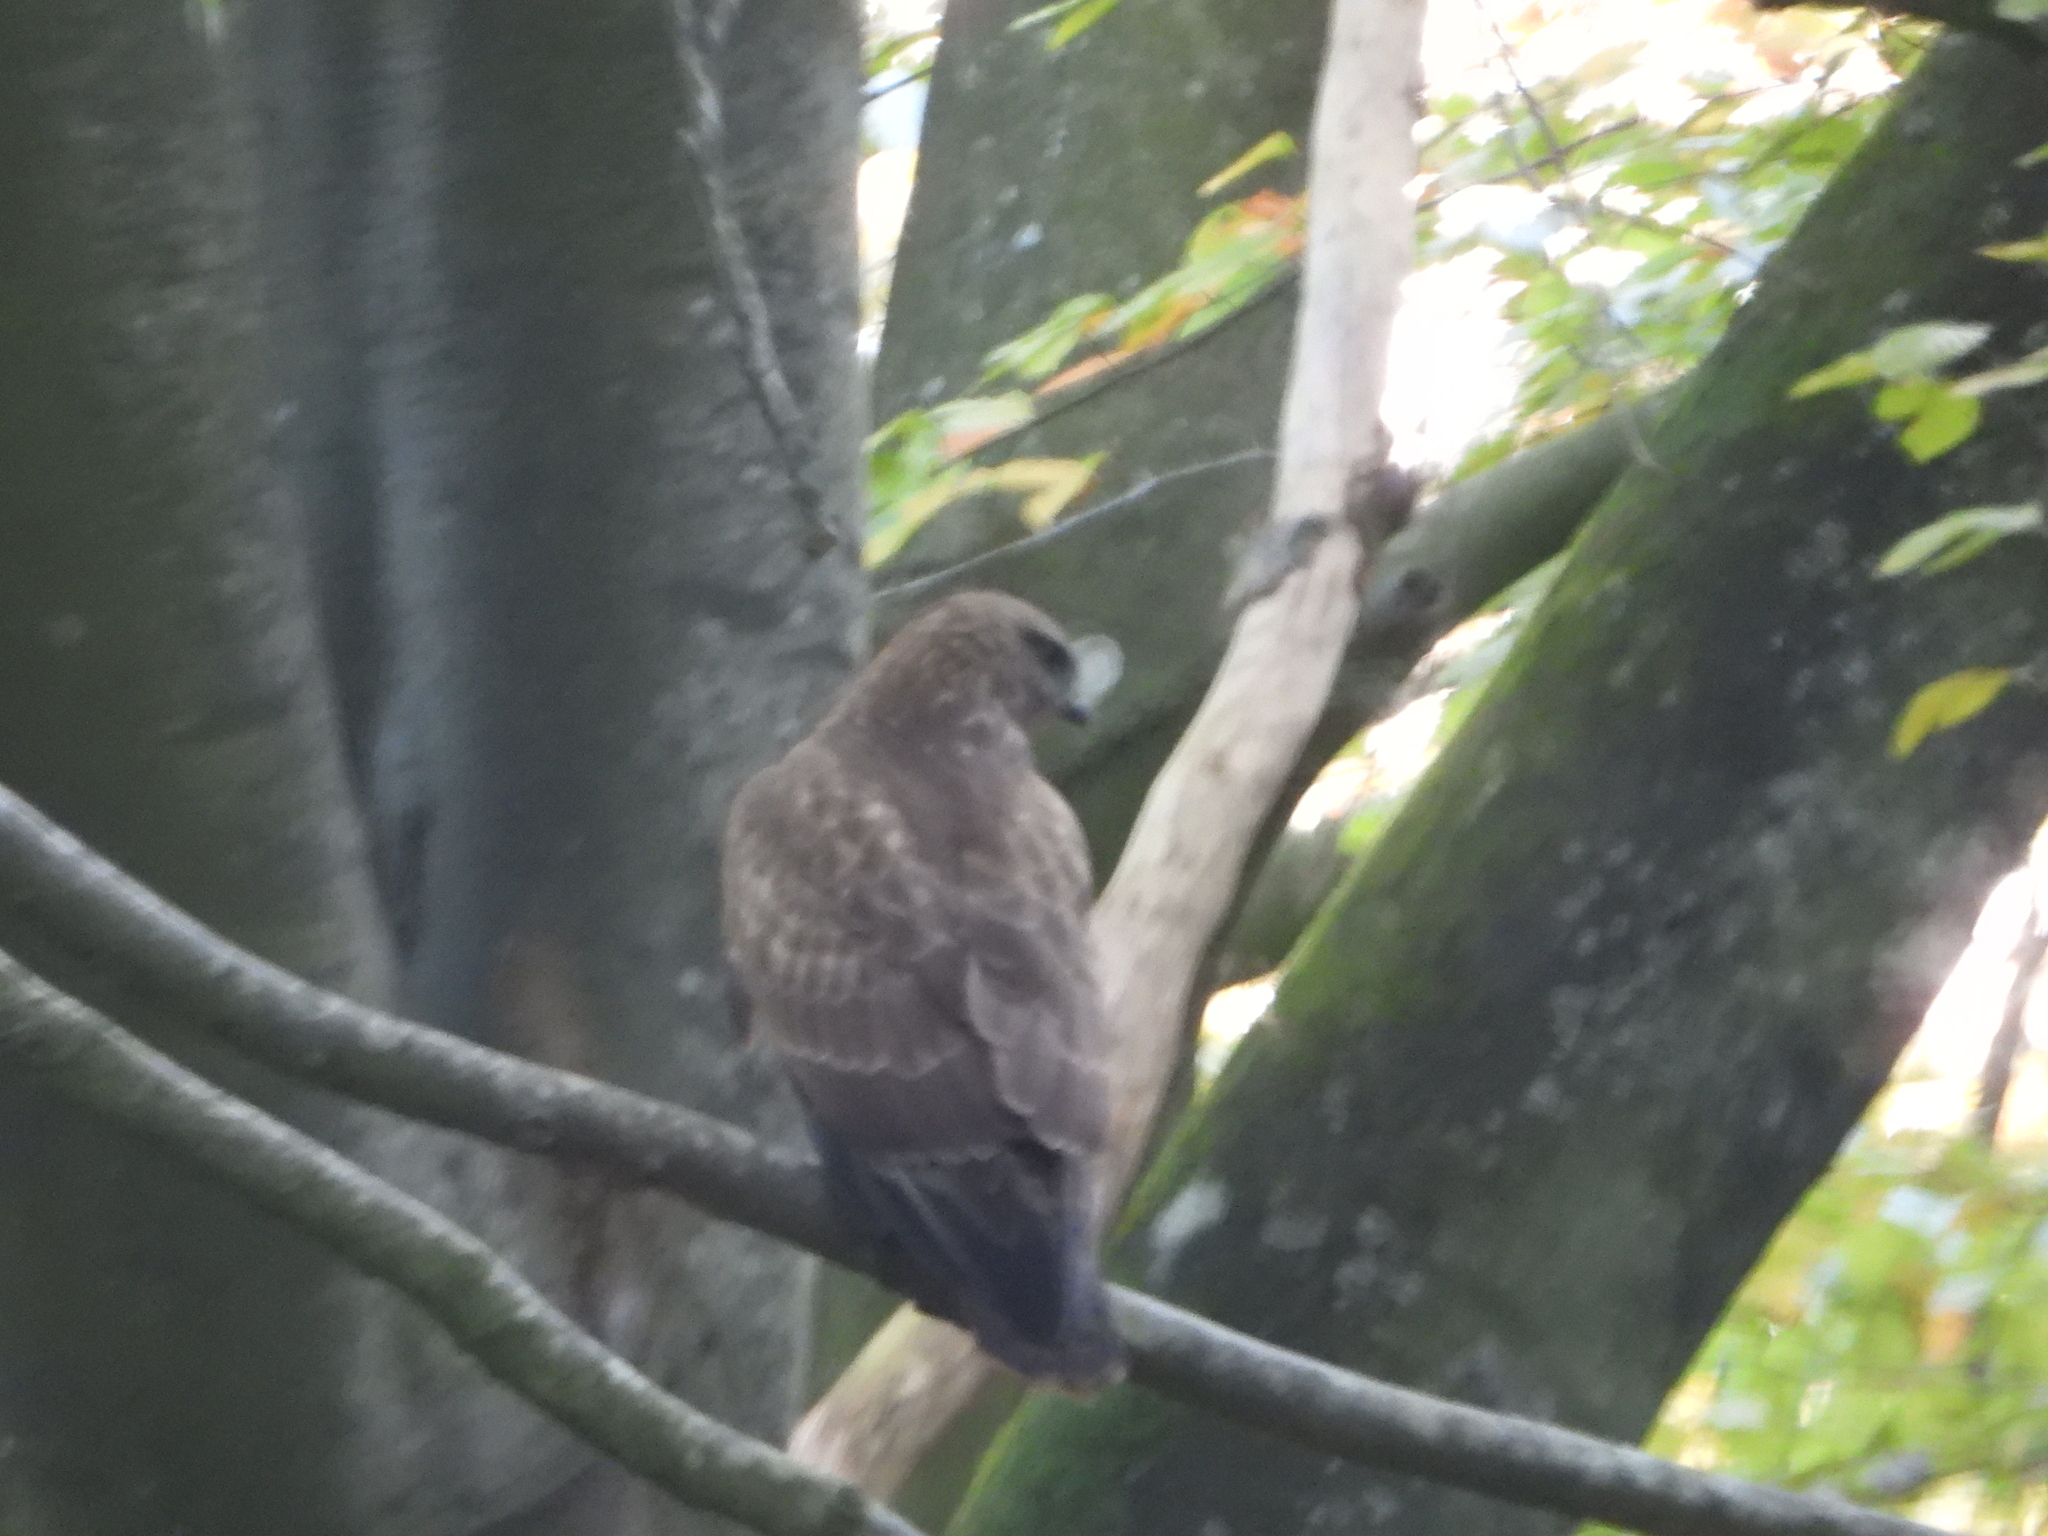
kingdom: Animalia
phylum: Chordata
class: Aves
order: Accipitriformes
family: Accipitridae
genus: Buteo
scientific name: Buteo buteo
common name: Common buzzard
